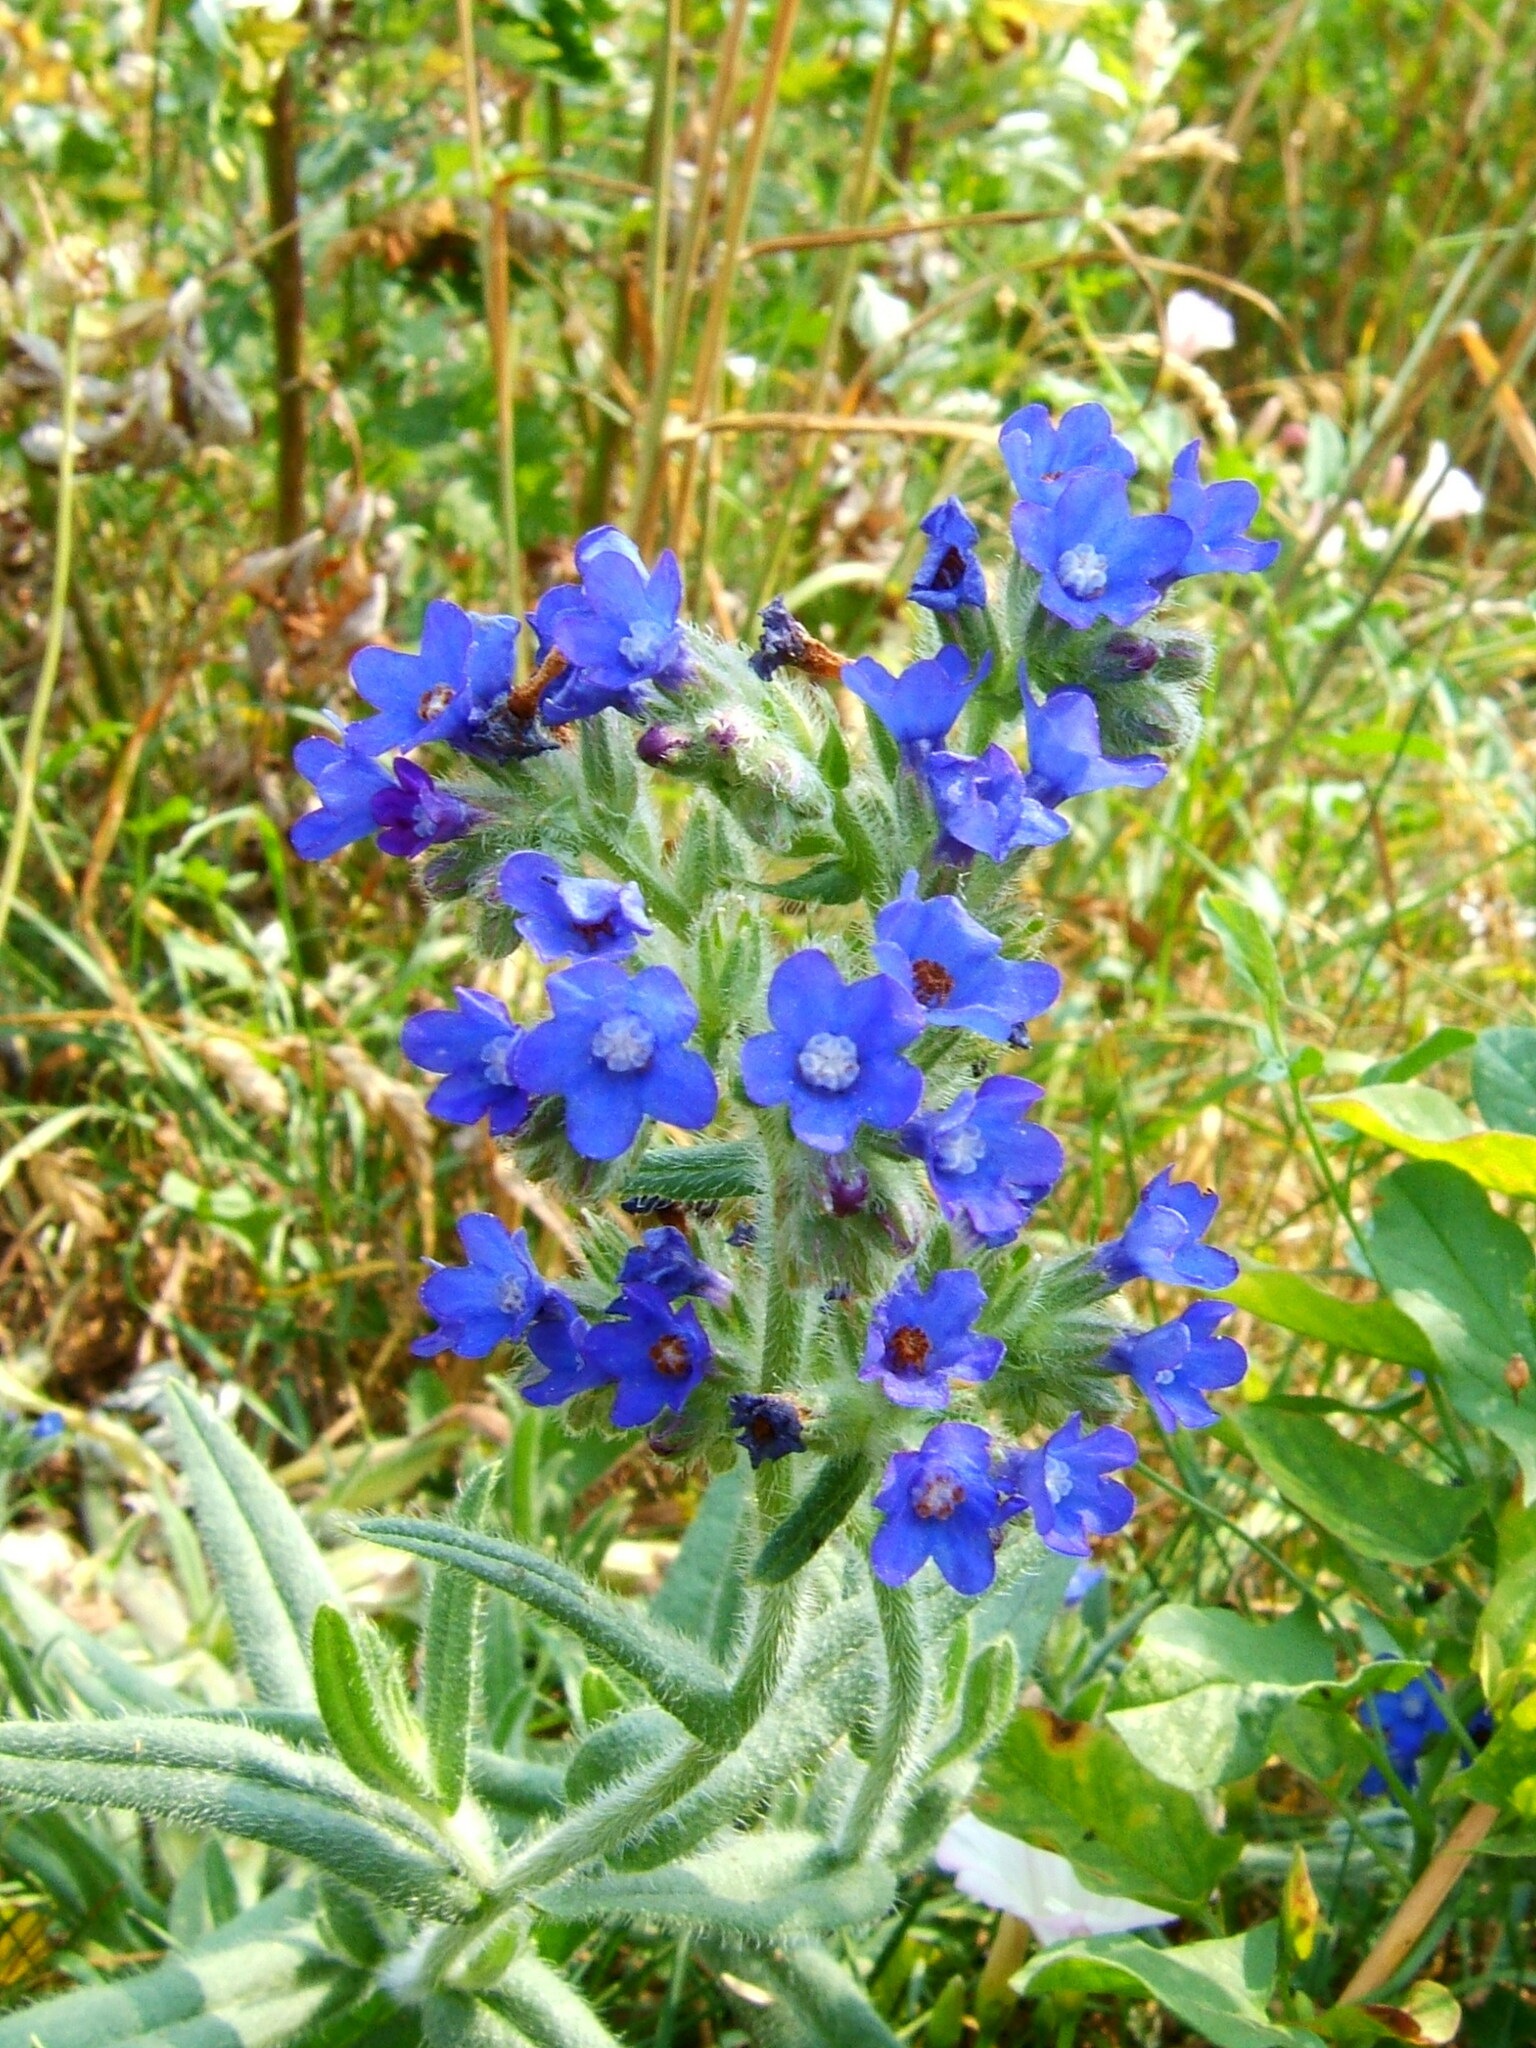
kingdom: Plantae
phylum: Tracheophyta
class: Magnoliopsida
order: Boraginales
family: Boraginaceae
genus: Anchusa
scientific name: Anchusa officinalis
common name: Alkanet
